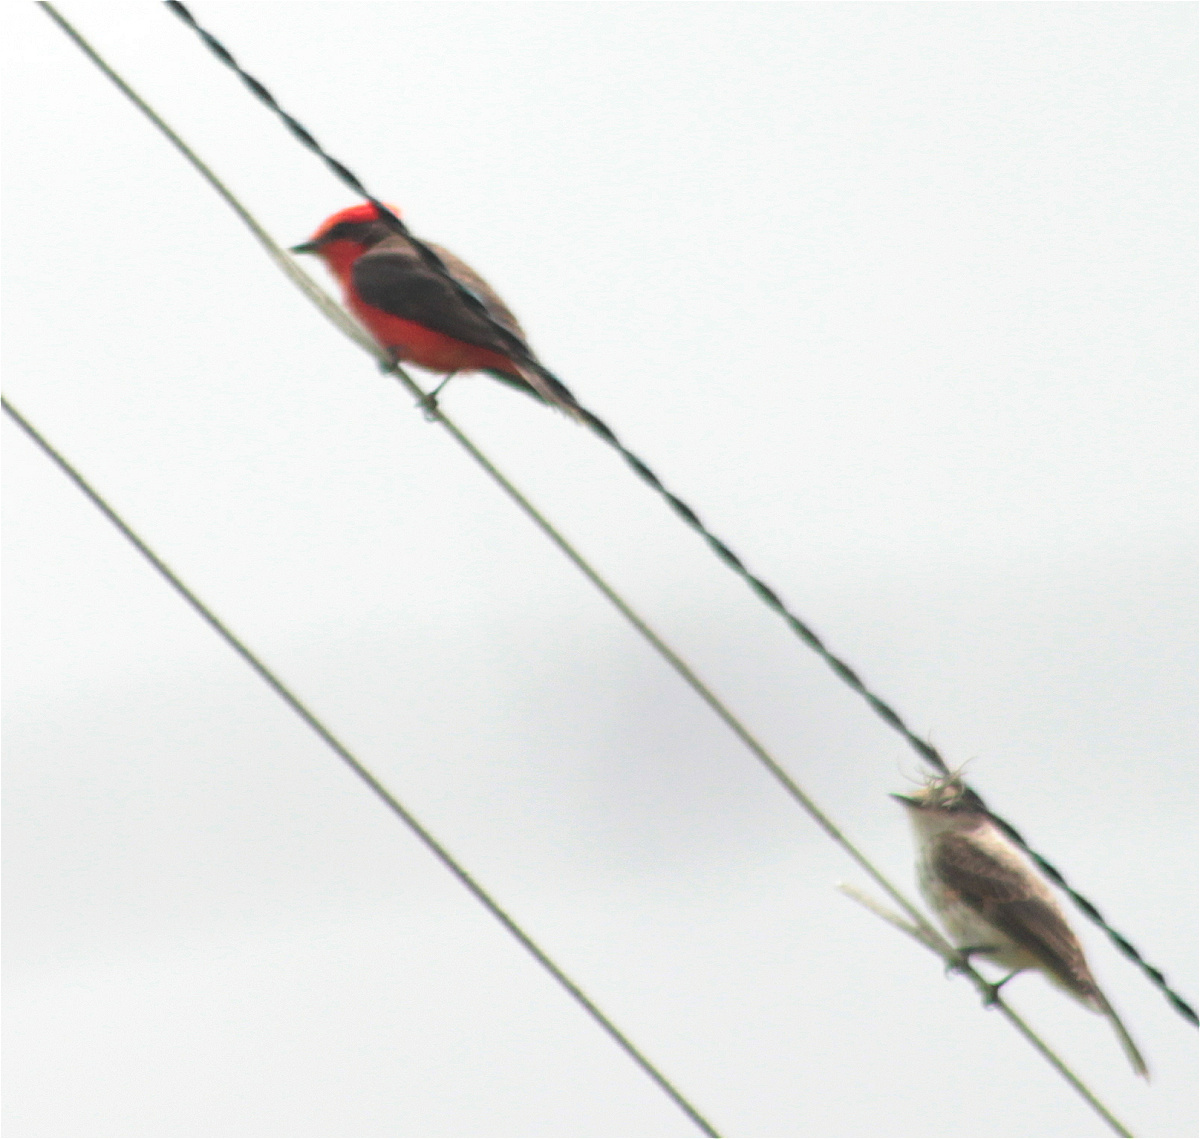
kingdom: Animalia
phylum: Chordata
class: Aves
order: Passeriformes
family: Tyrannidae
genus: Pyrocephalus
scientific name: Pyrocephalus rubinus
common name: Vermilion flycatcher
